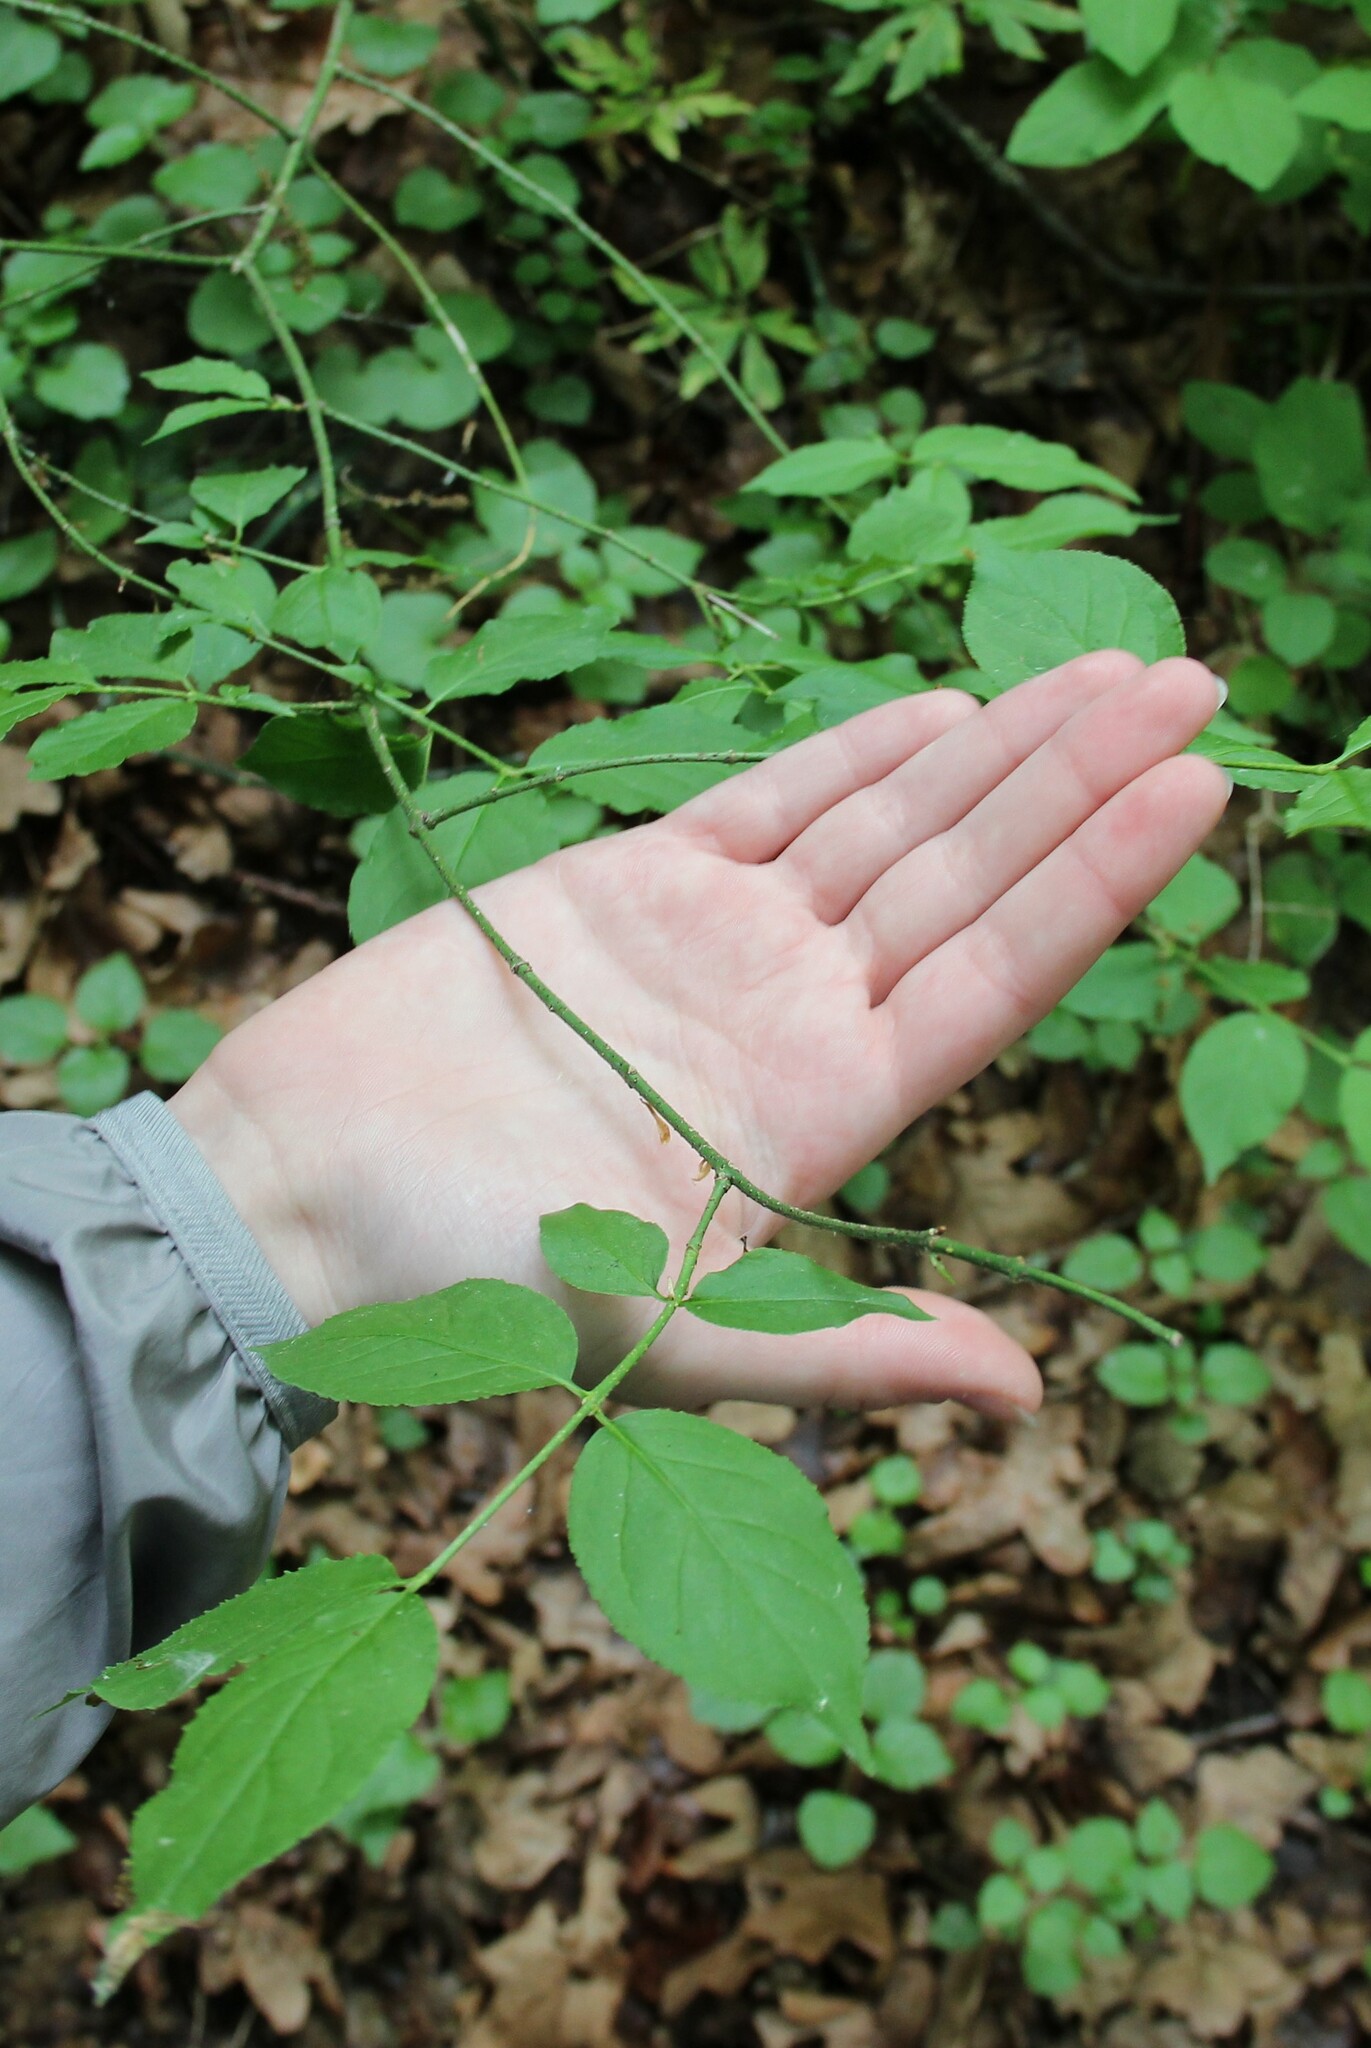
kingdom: Plantae
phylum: Tracheophyta
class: Magnoliopsida
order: Celastrales
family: Celastraceae
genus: Euonymus
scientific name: Euonymus verrucosus
